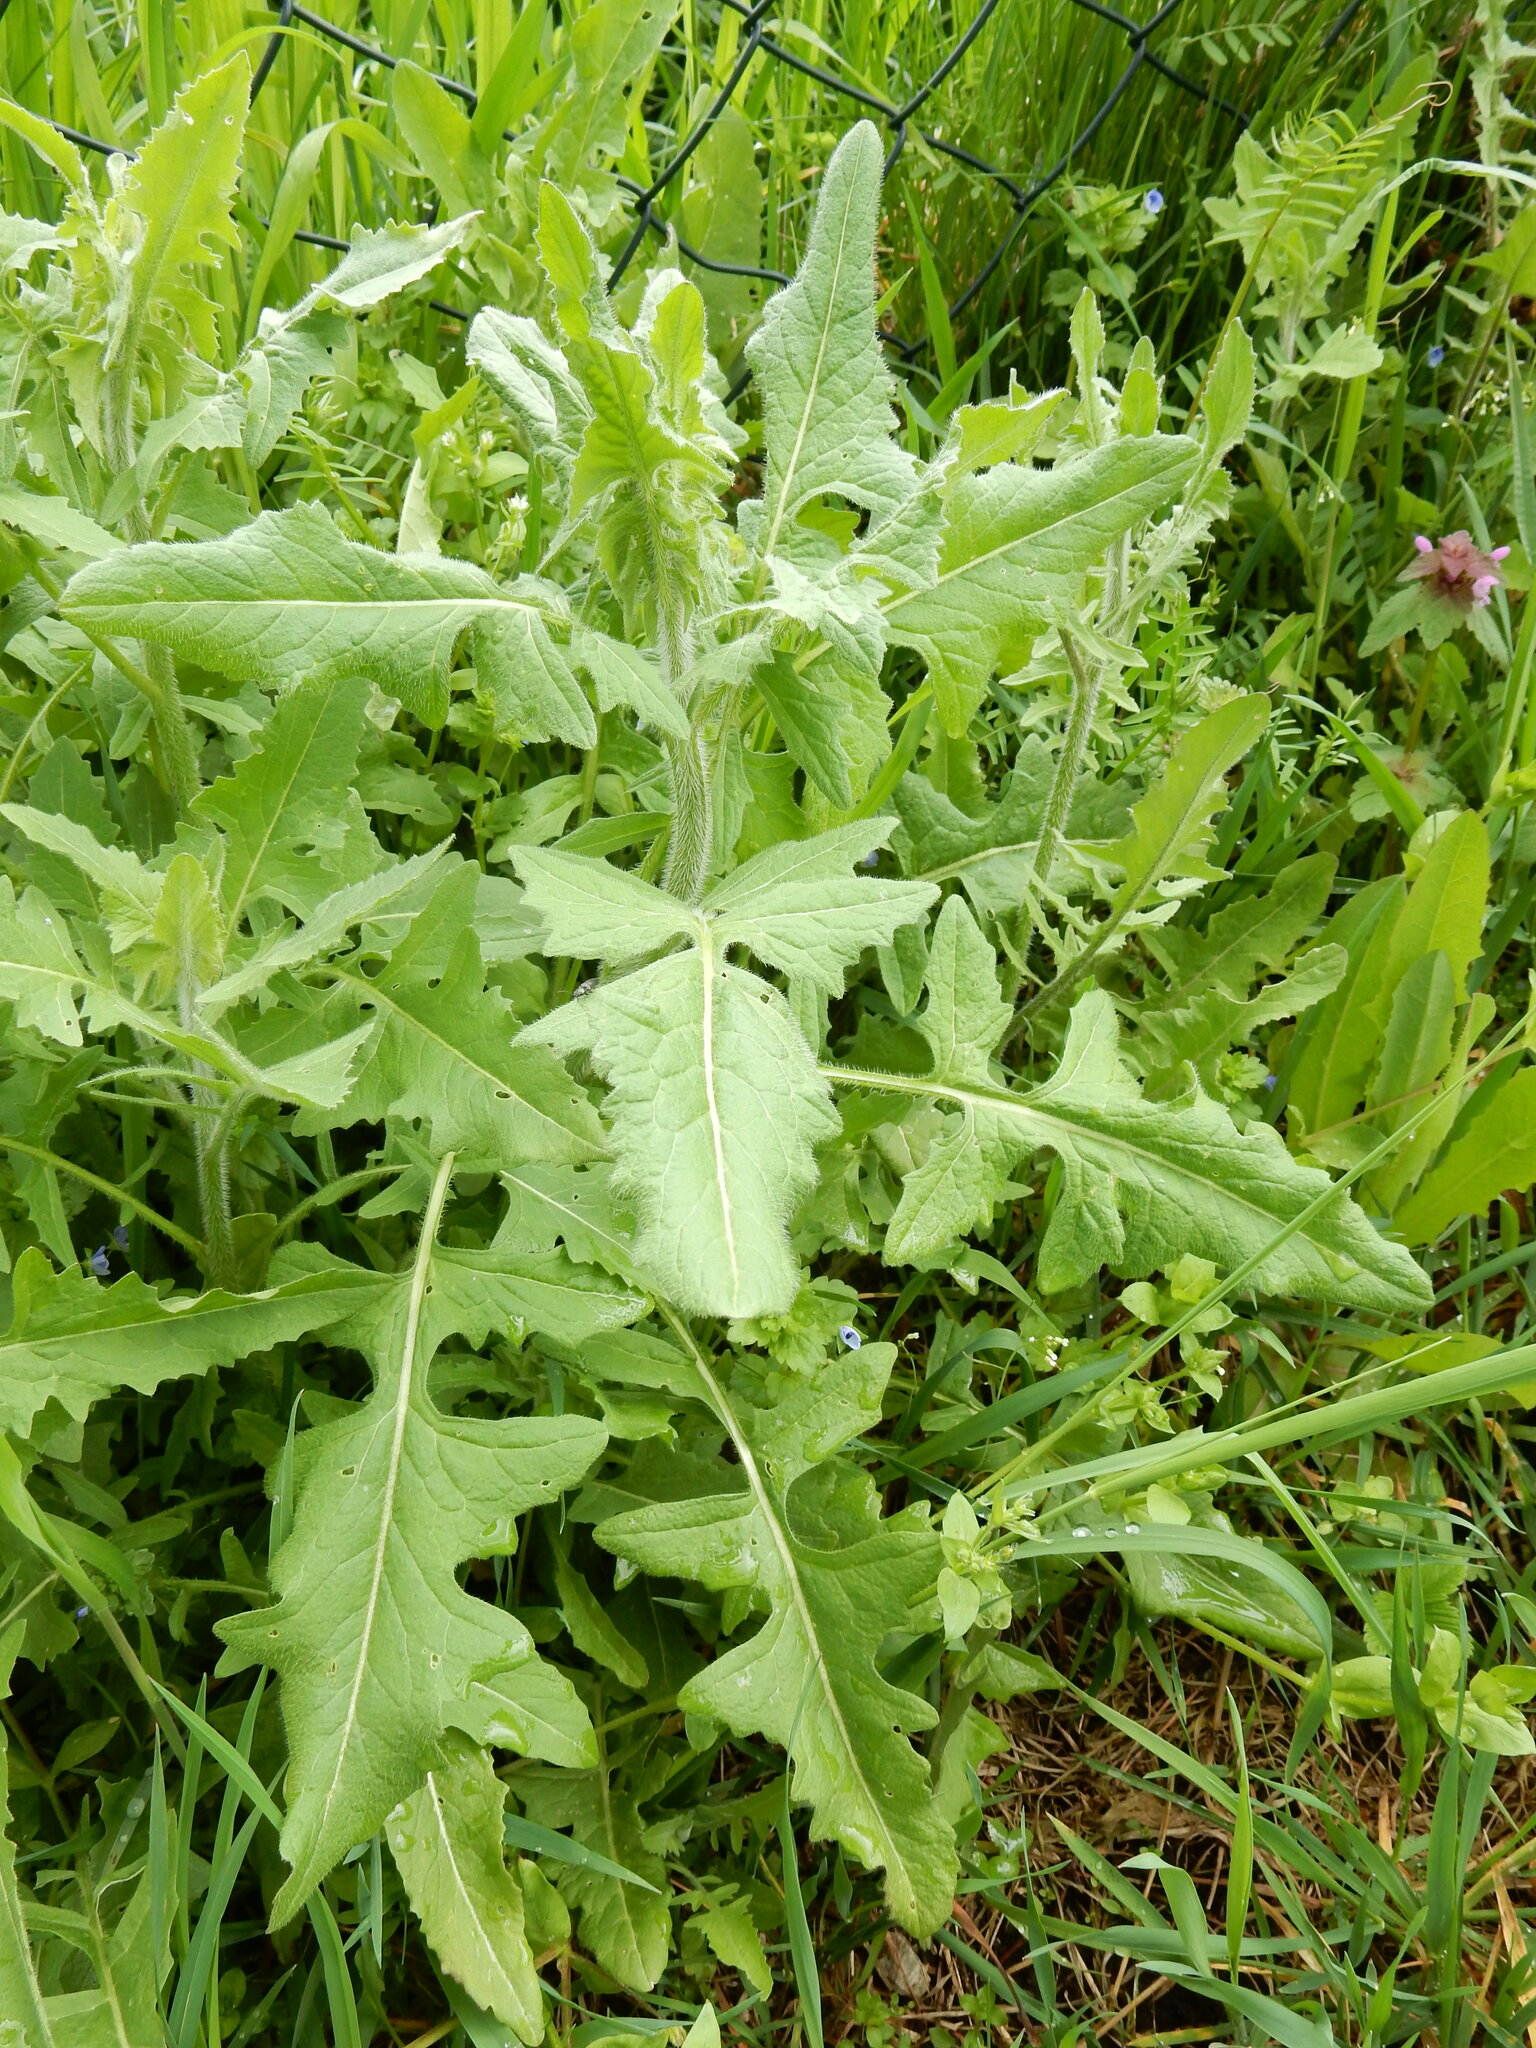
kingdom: Plantae
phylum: Tracheophyta
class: Magnoliopsida
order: Brassicales
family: Brassicaceae
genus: Sisymbrium
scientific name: Sisymbrium loeselii
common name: False london-rocket
